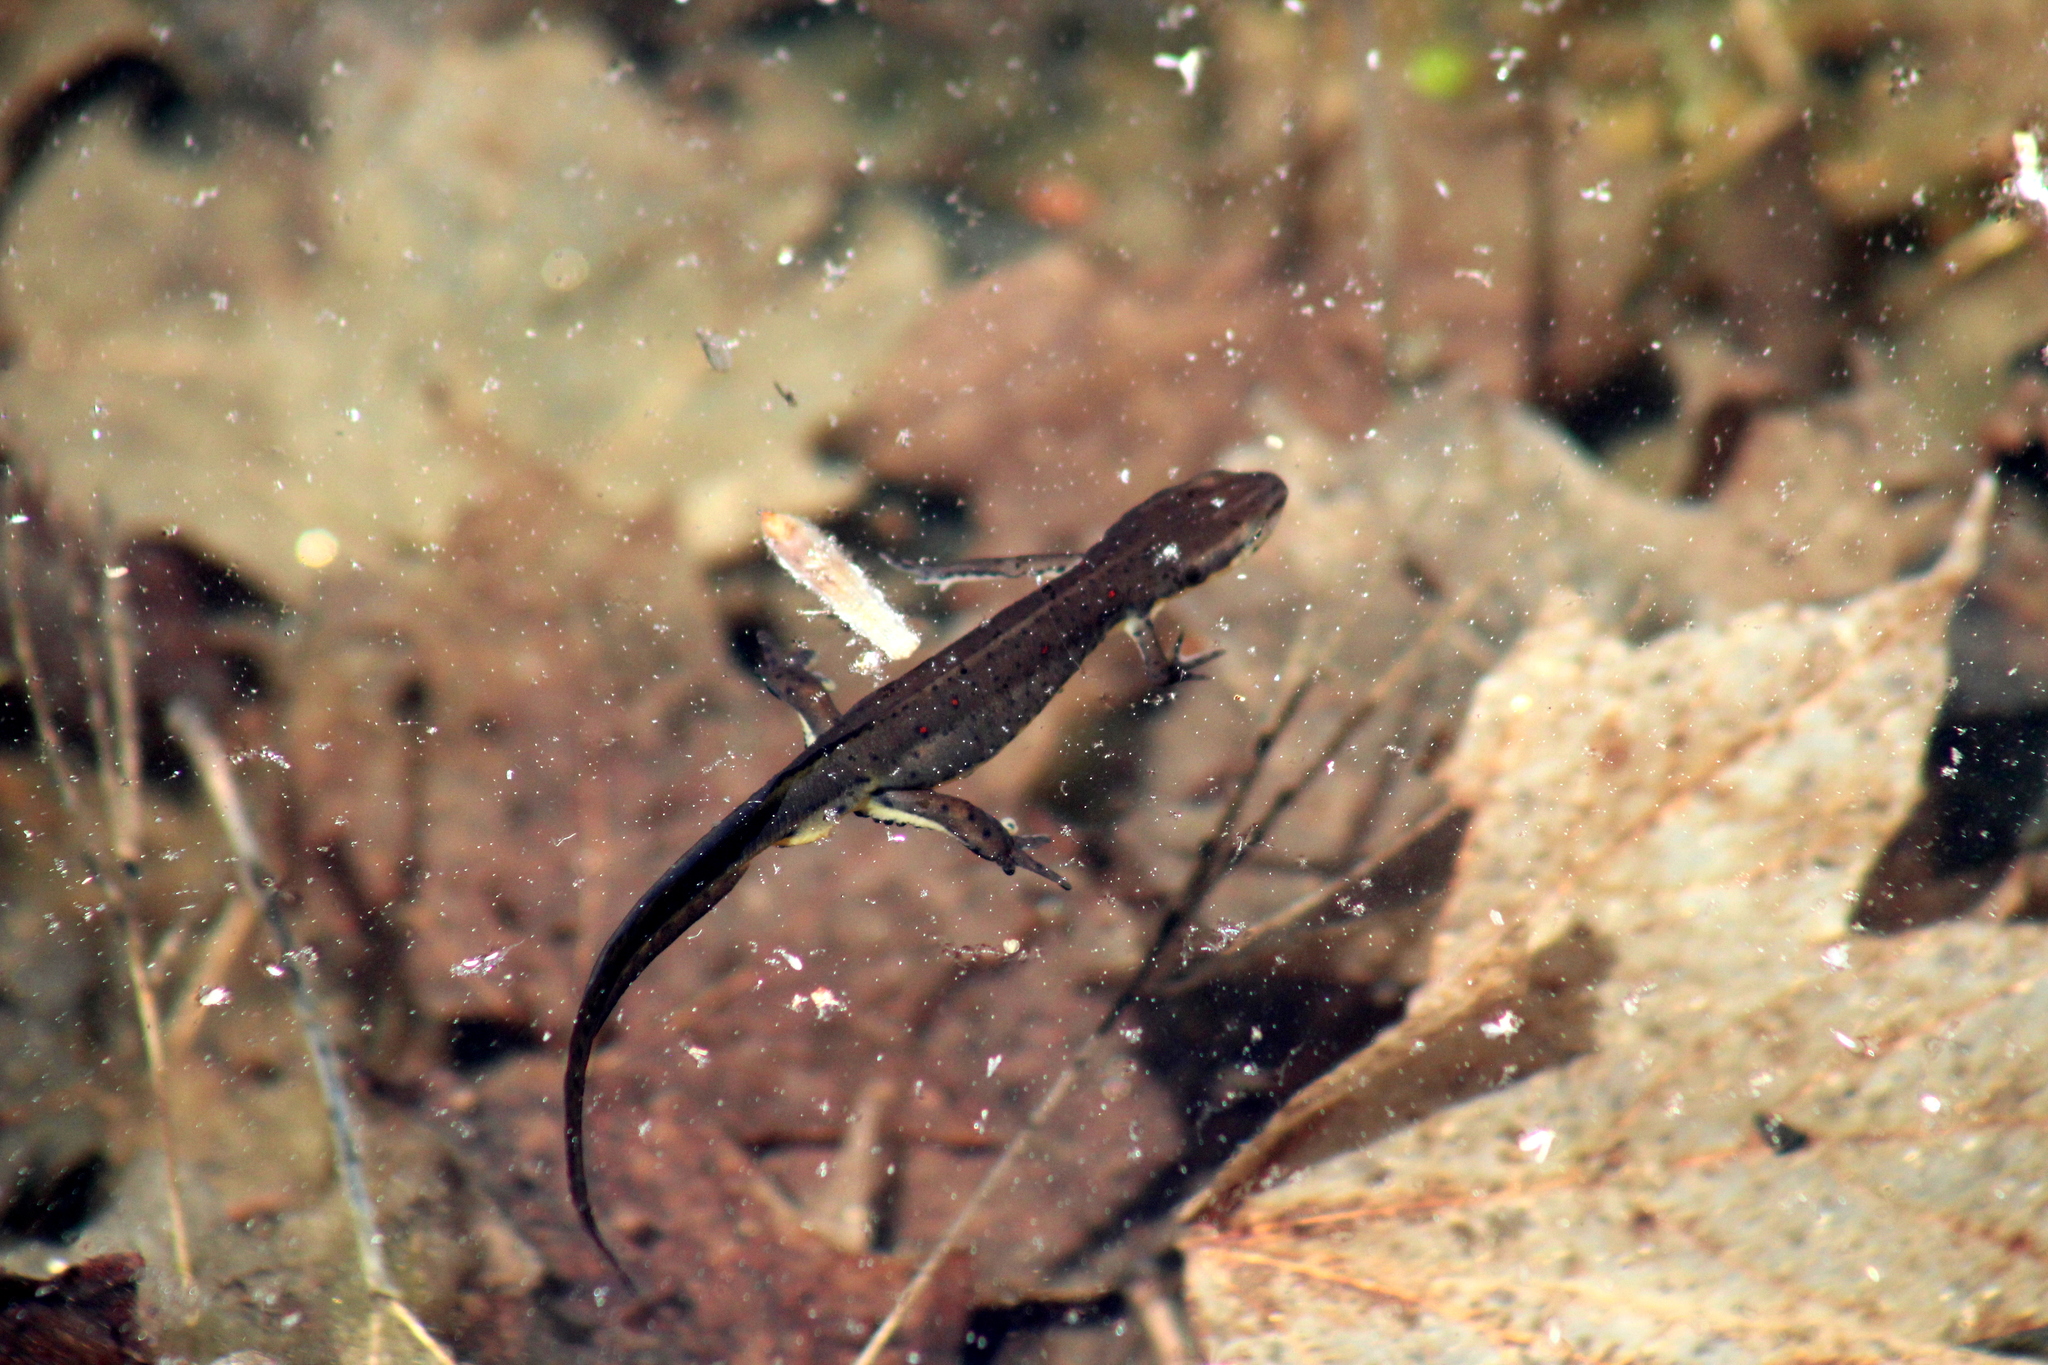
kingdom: Animalia
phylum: Chordata
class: Amphibia
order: Caudata
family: Salamandridae
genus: Notophthalmus
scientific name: Notophthalmus viridescens
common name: Eastern newt
